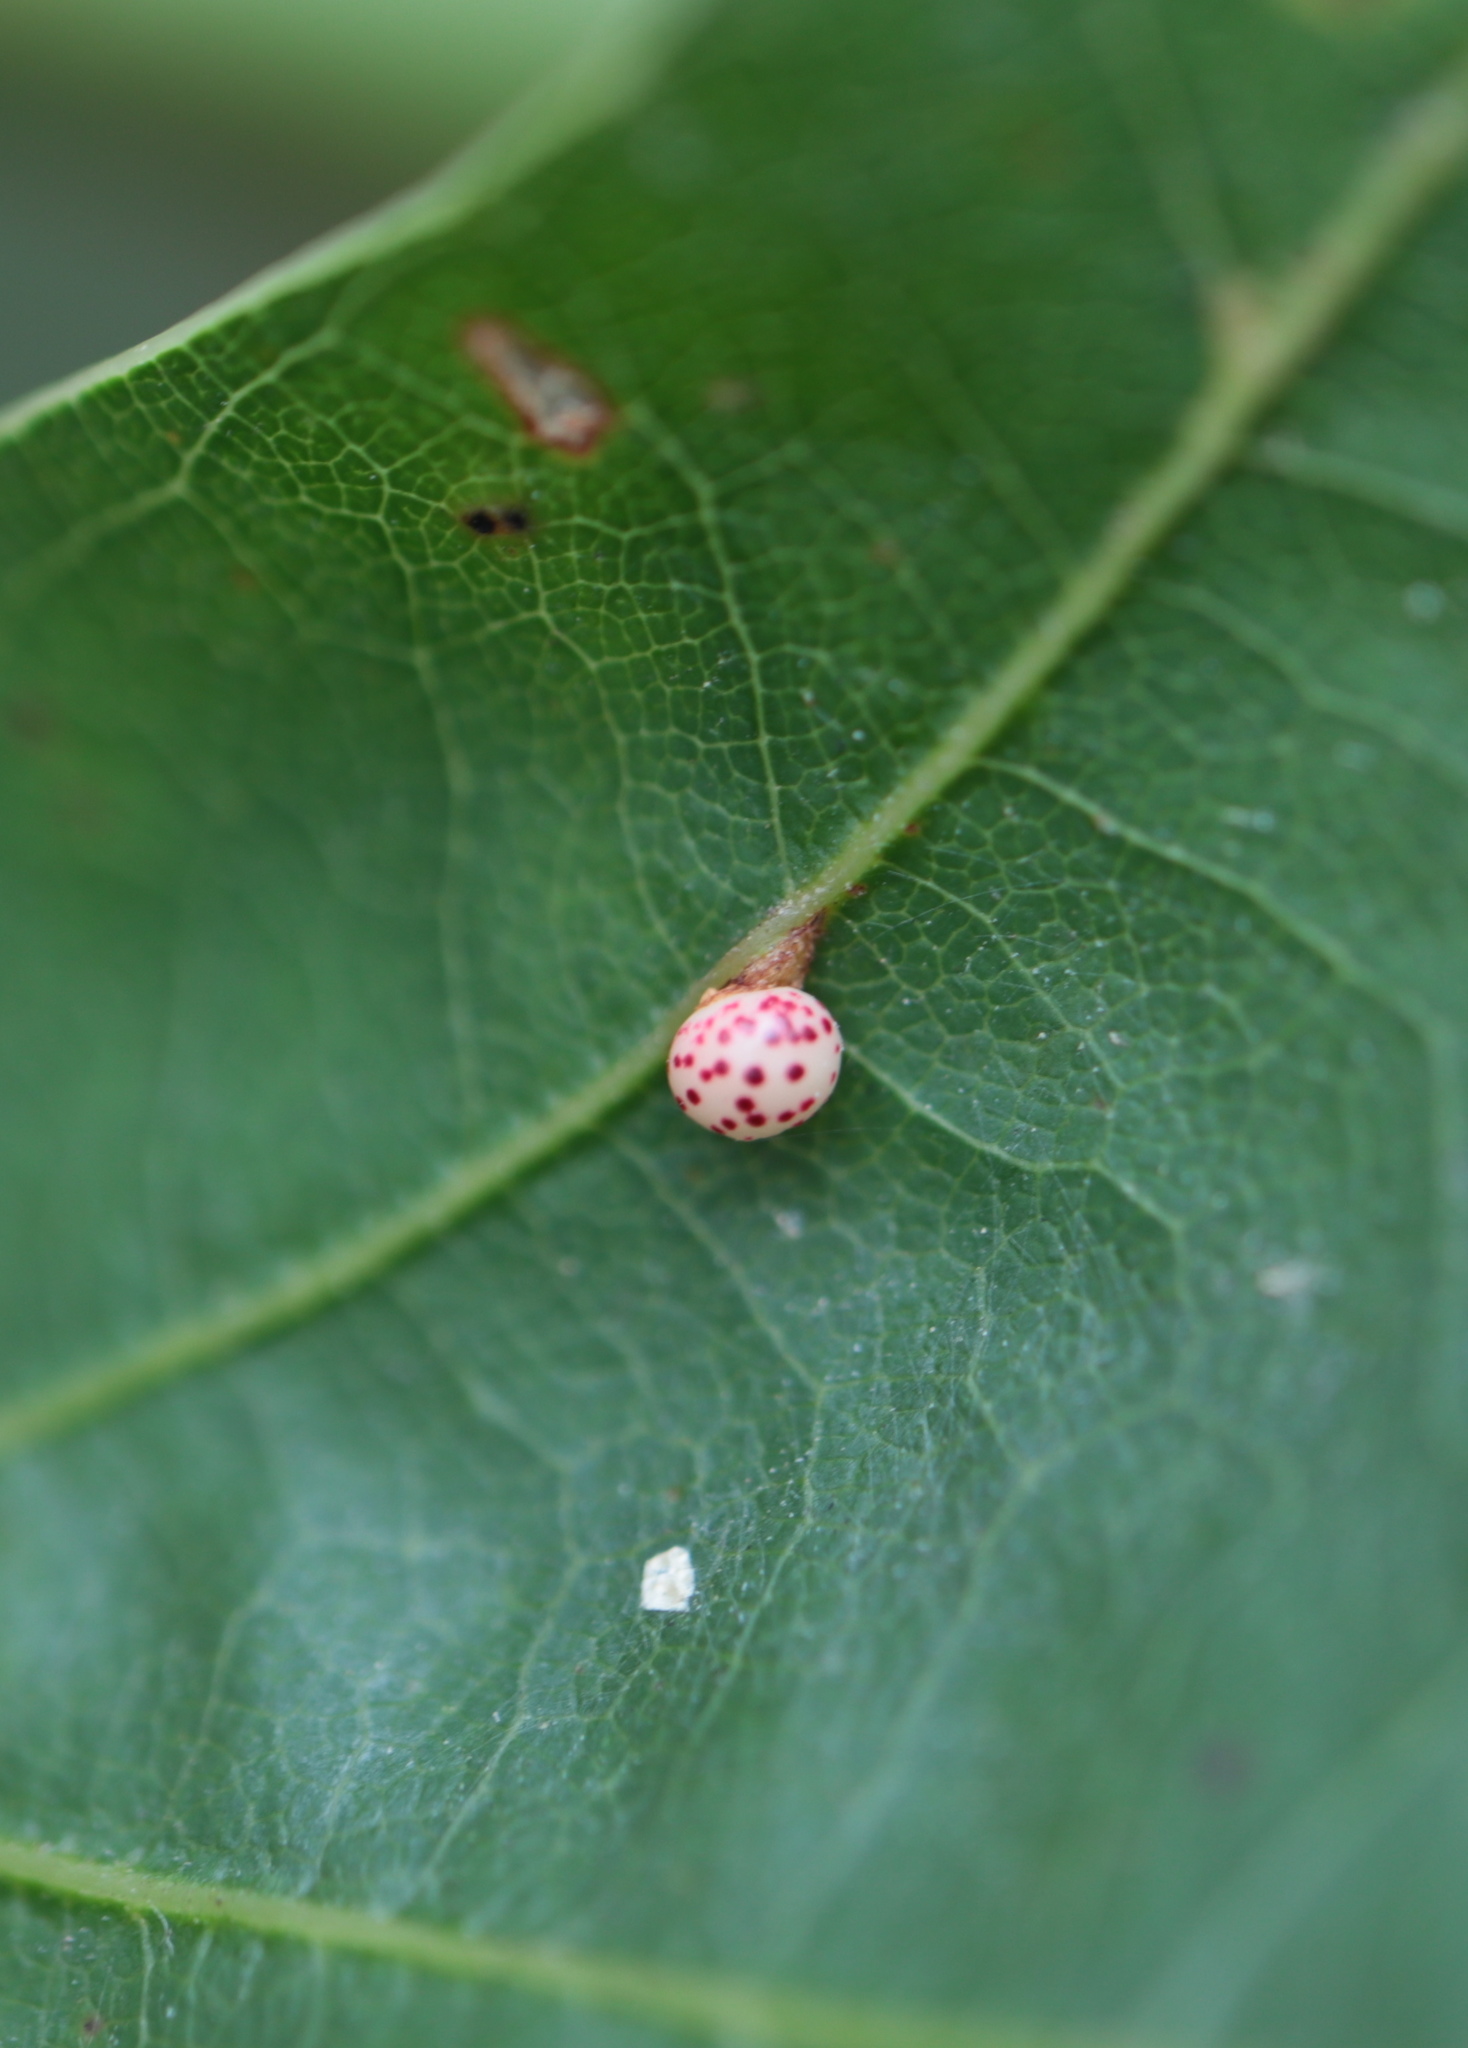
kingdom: Animalia
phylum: Arthropoda
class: Insecta
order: Hymenoptera
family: Cynipidae
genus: Zopheroteras
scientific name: Zopheroteras
